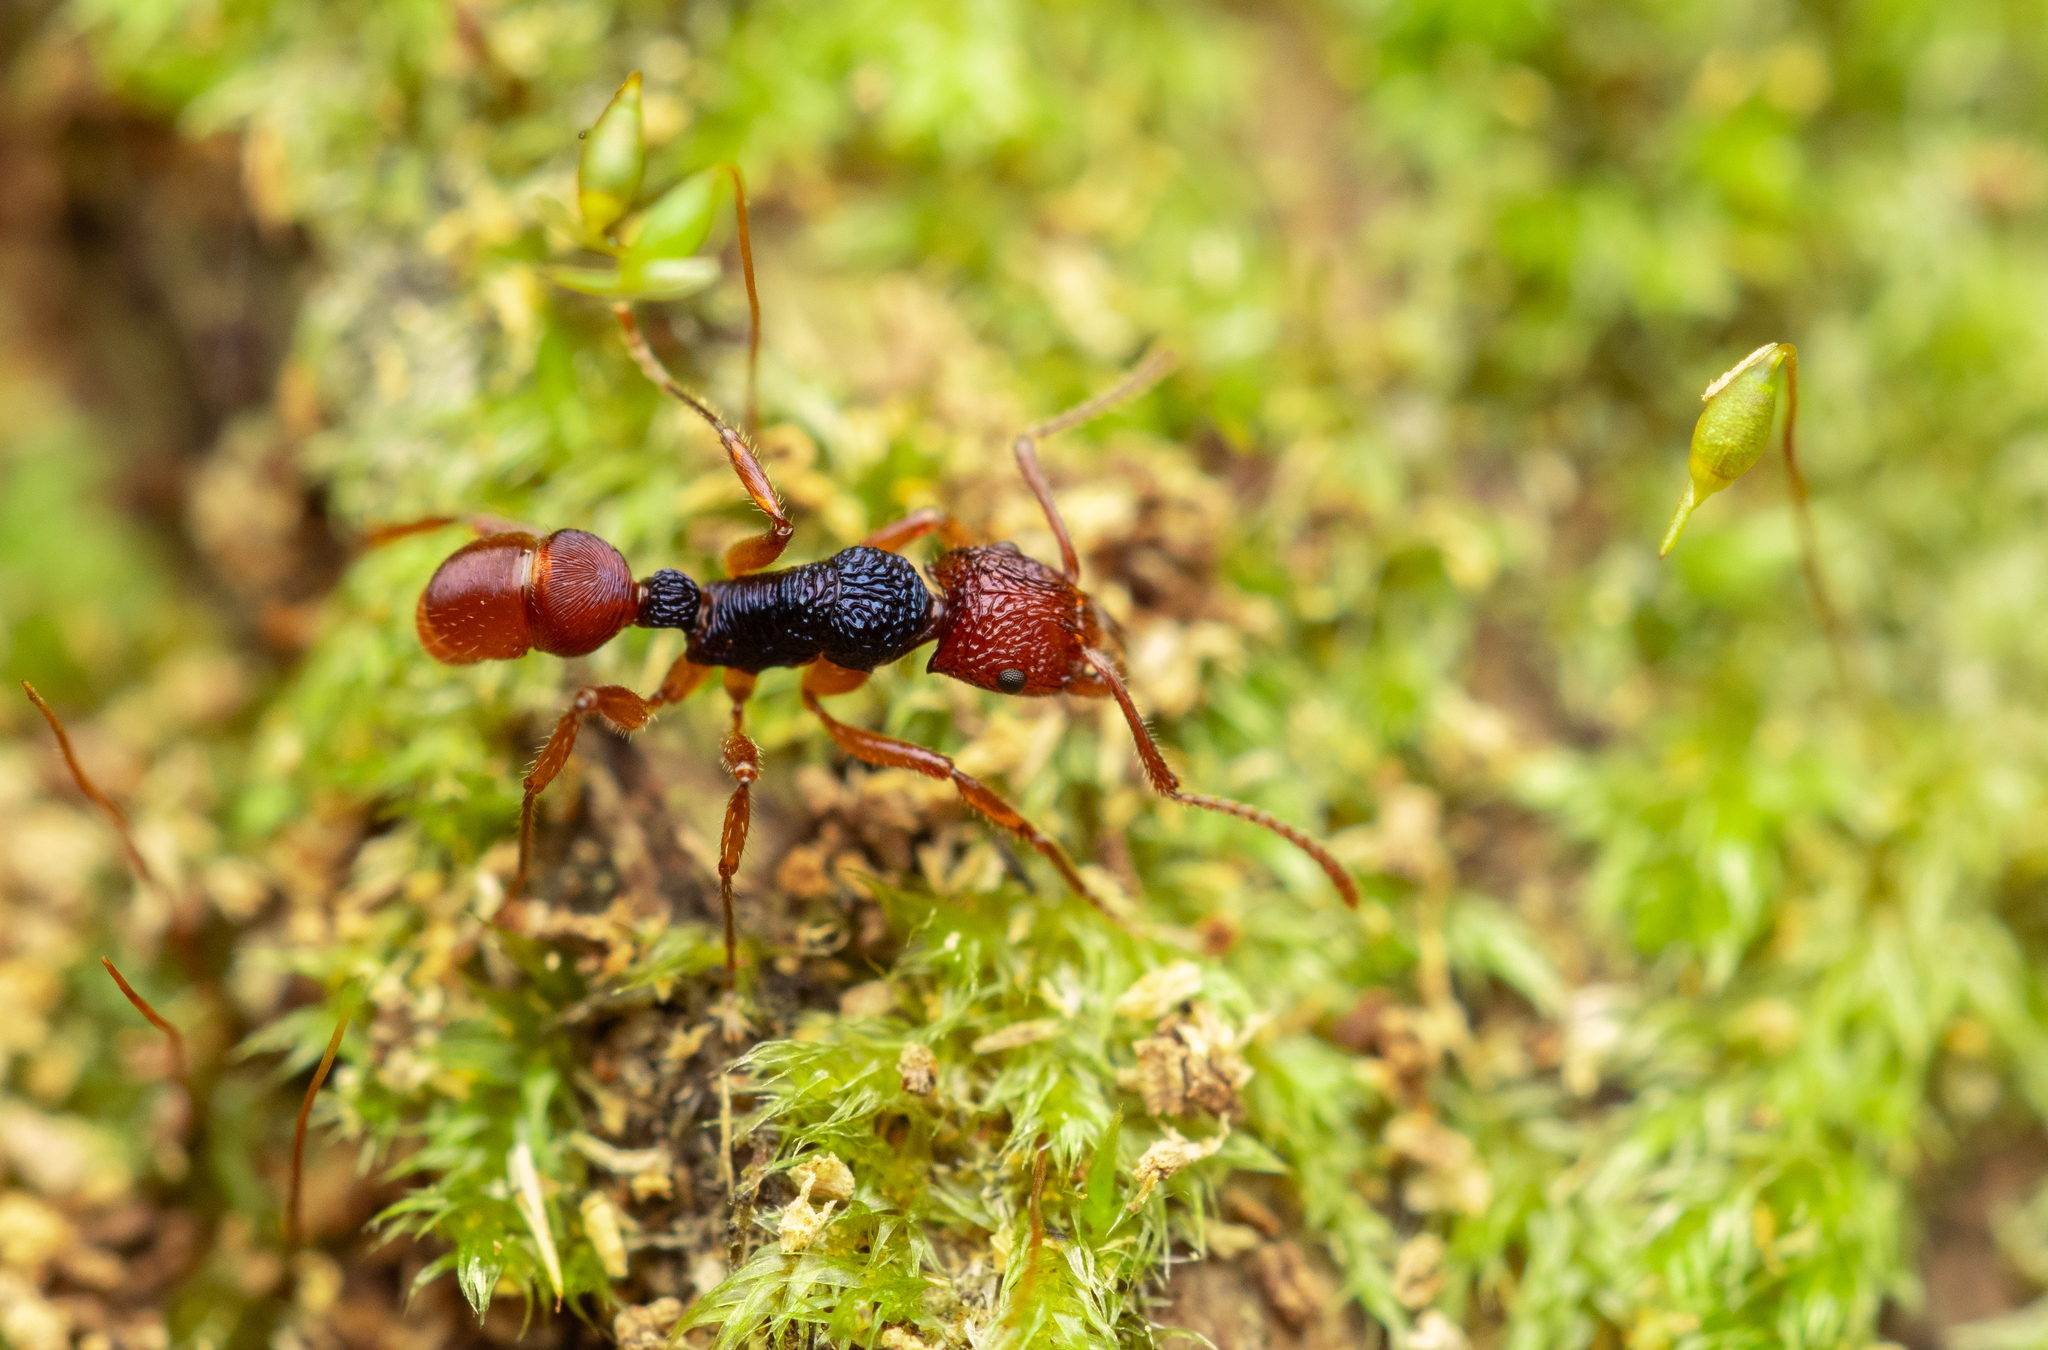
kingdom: Animalia
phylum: Arthropoda
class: Insecta
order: Hymenoptera
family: Formicidae
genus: Rhytidoponera
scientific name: Rhytidoponera croesus
